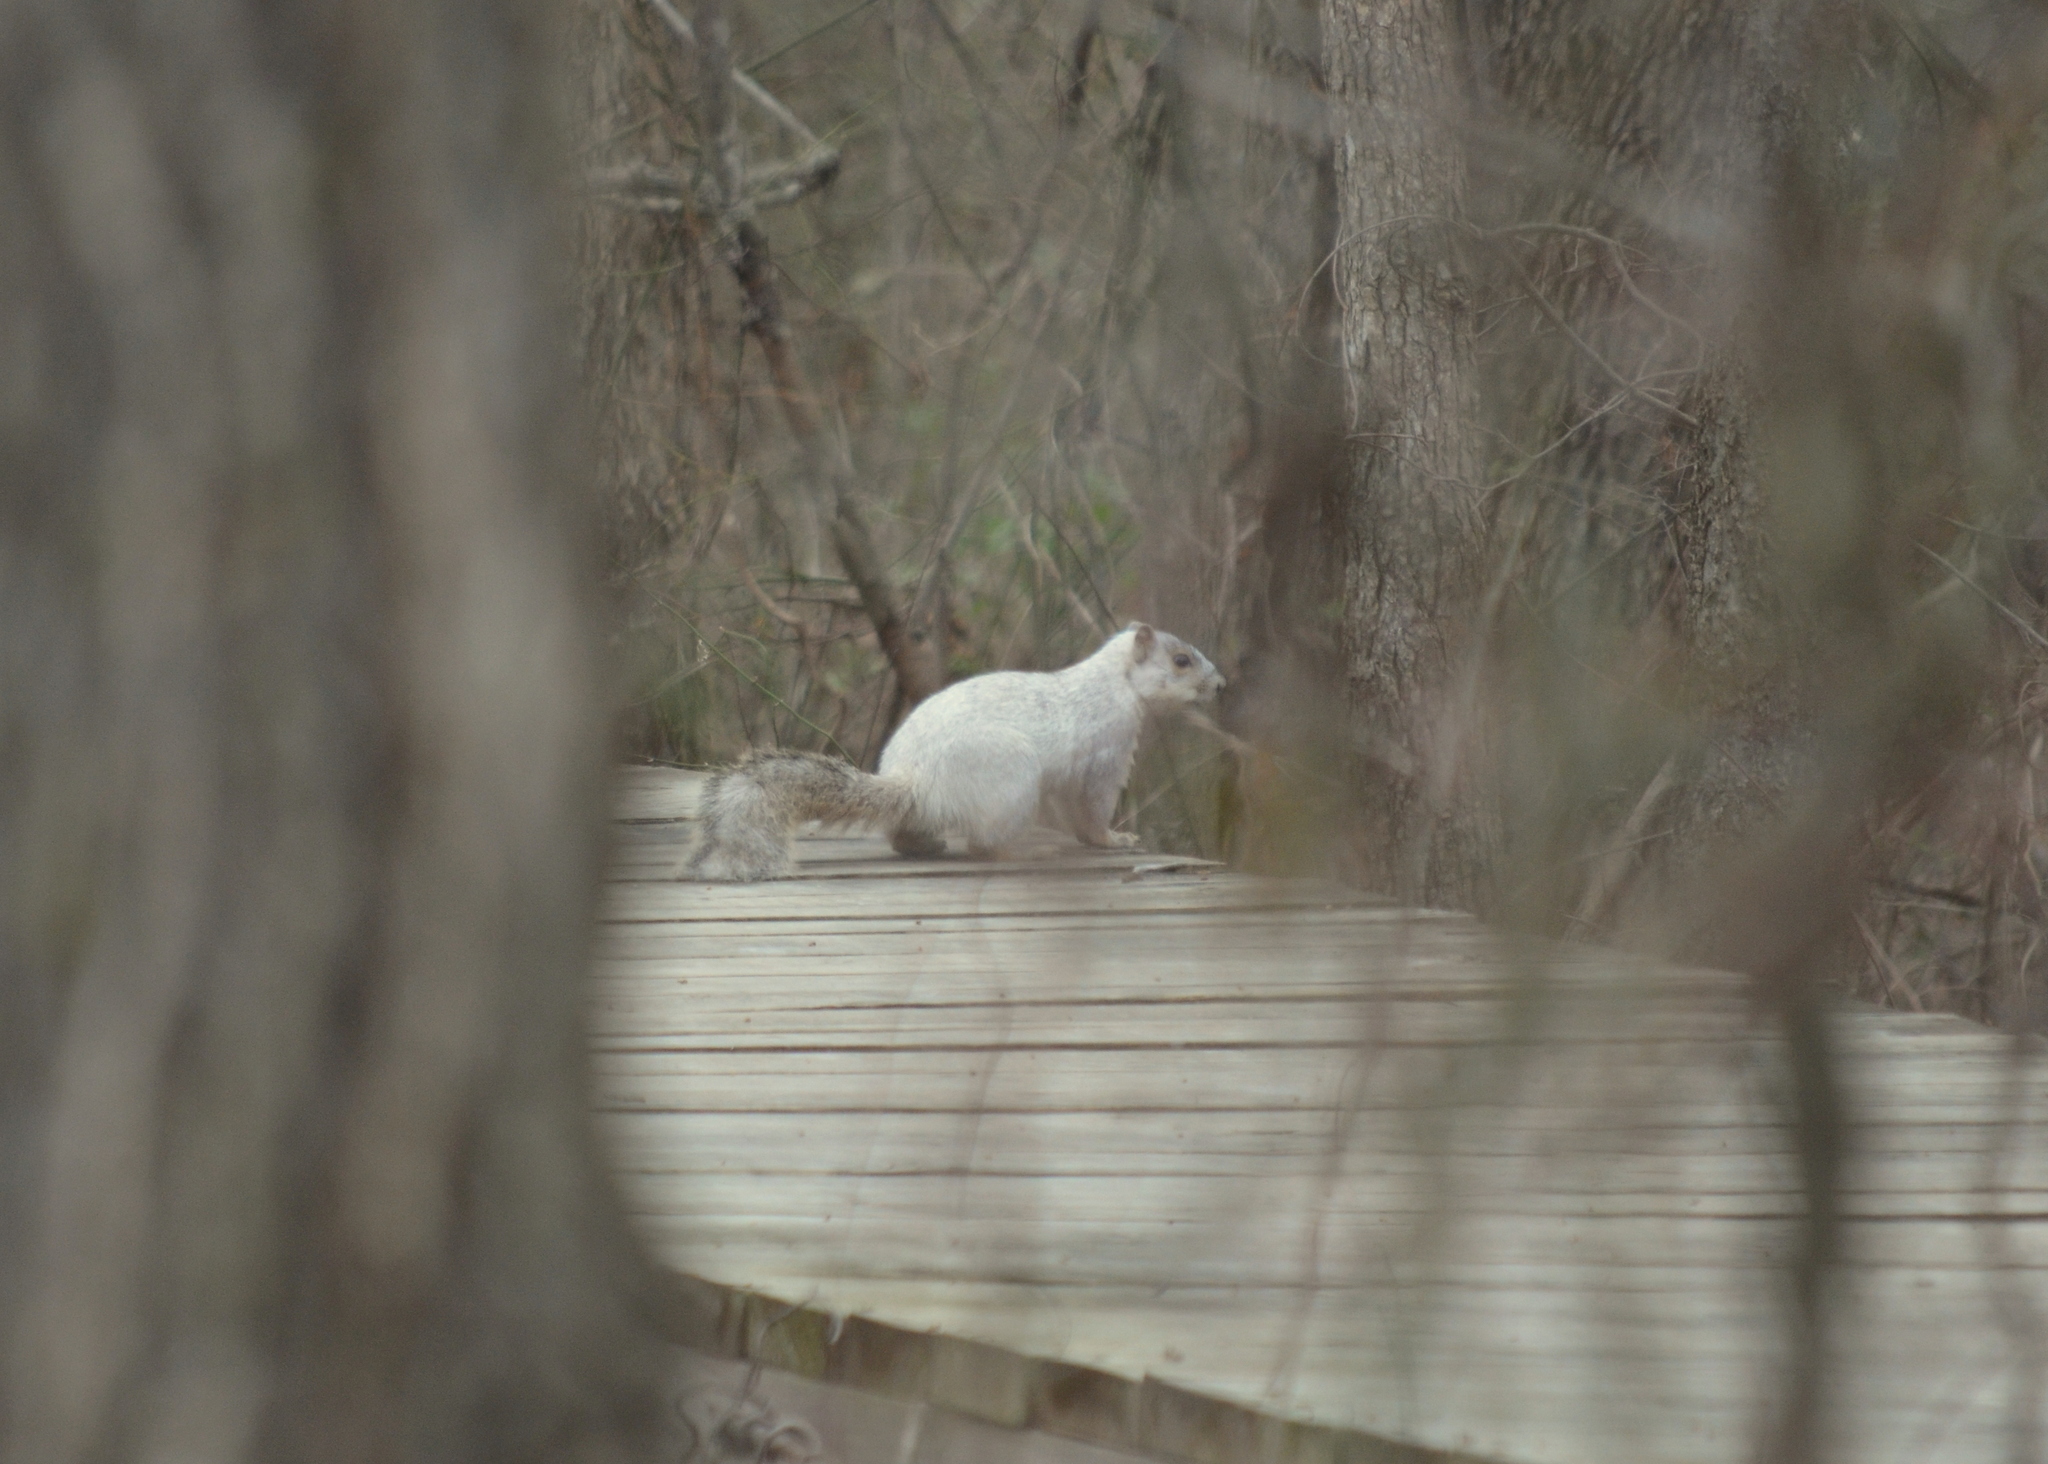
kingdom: Animalia
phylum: Chordata
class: Mammalia
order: Rodentia
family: Sciuridae
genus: Sciurus
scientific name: Sciurus niger
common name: Fox squirrel
